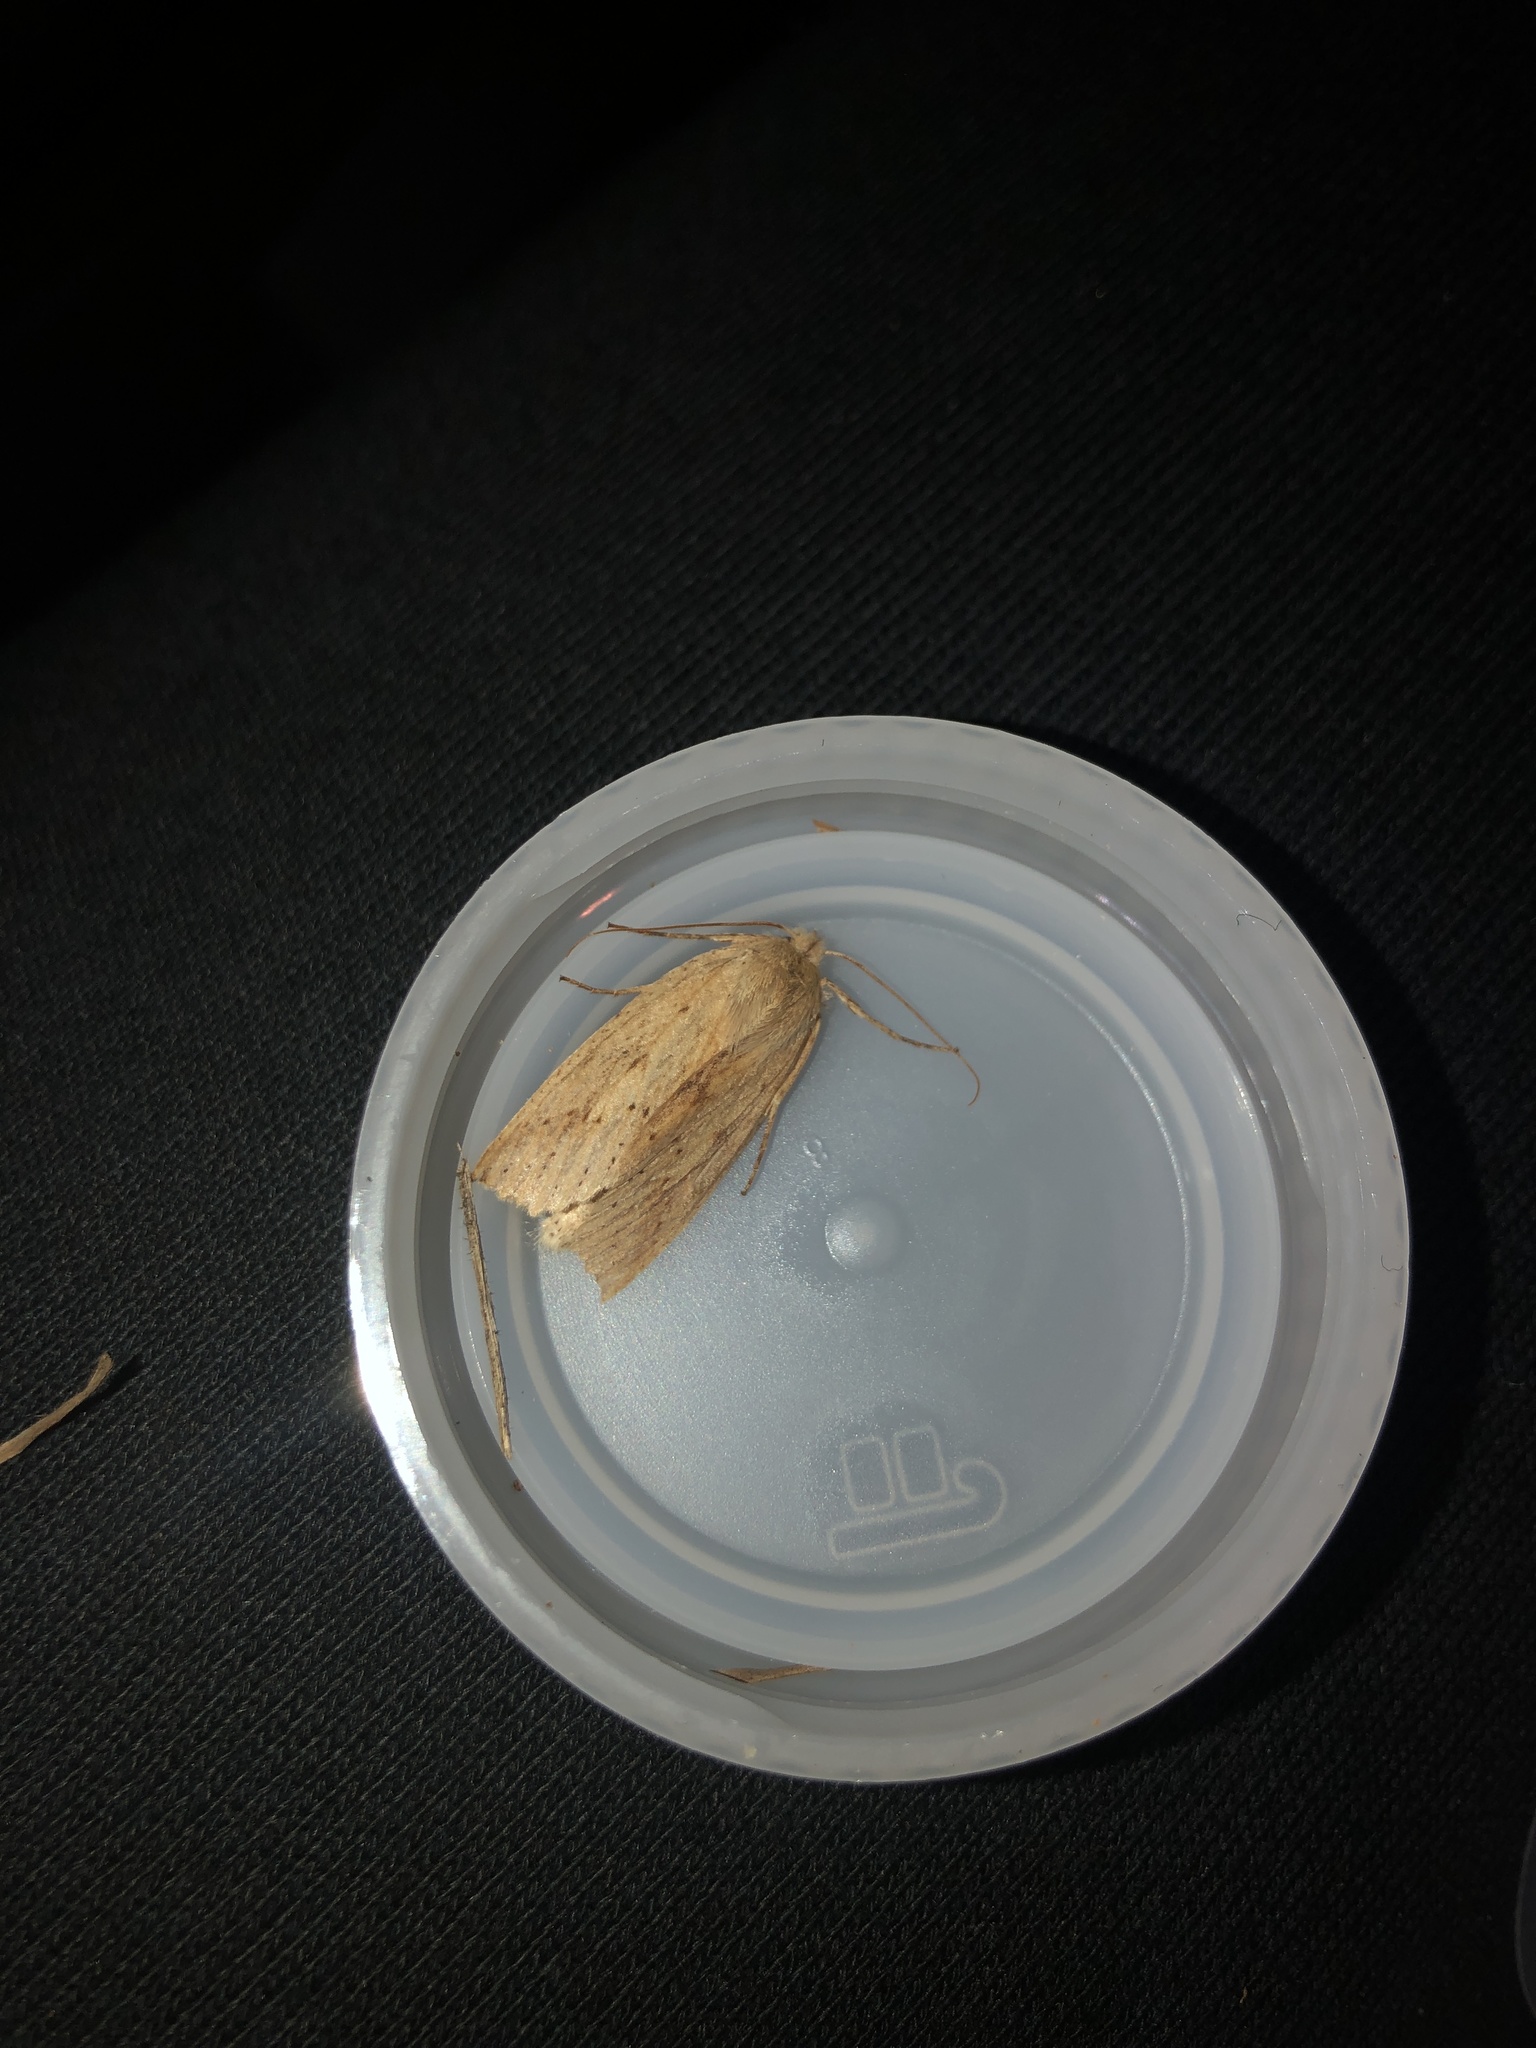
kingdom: Animalia
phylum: Arthropoda
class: Insecta
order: Lepidoptera
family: Geometridae
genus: Declana
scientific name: Declana leptomera
